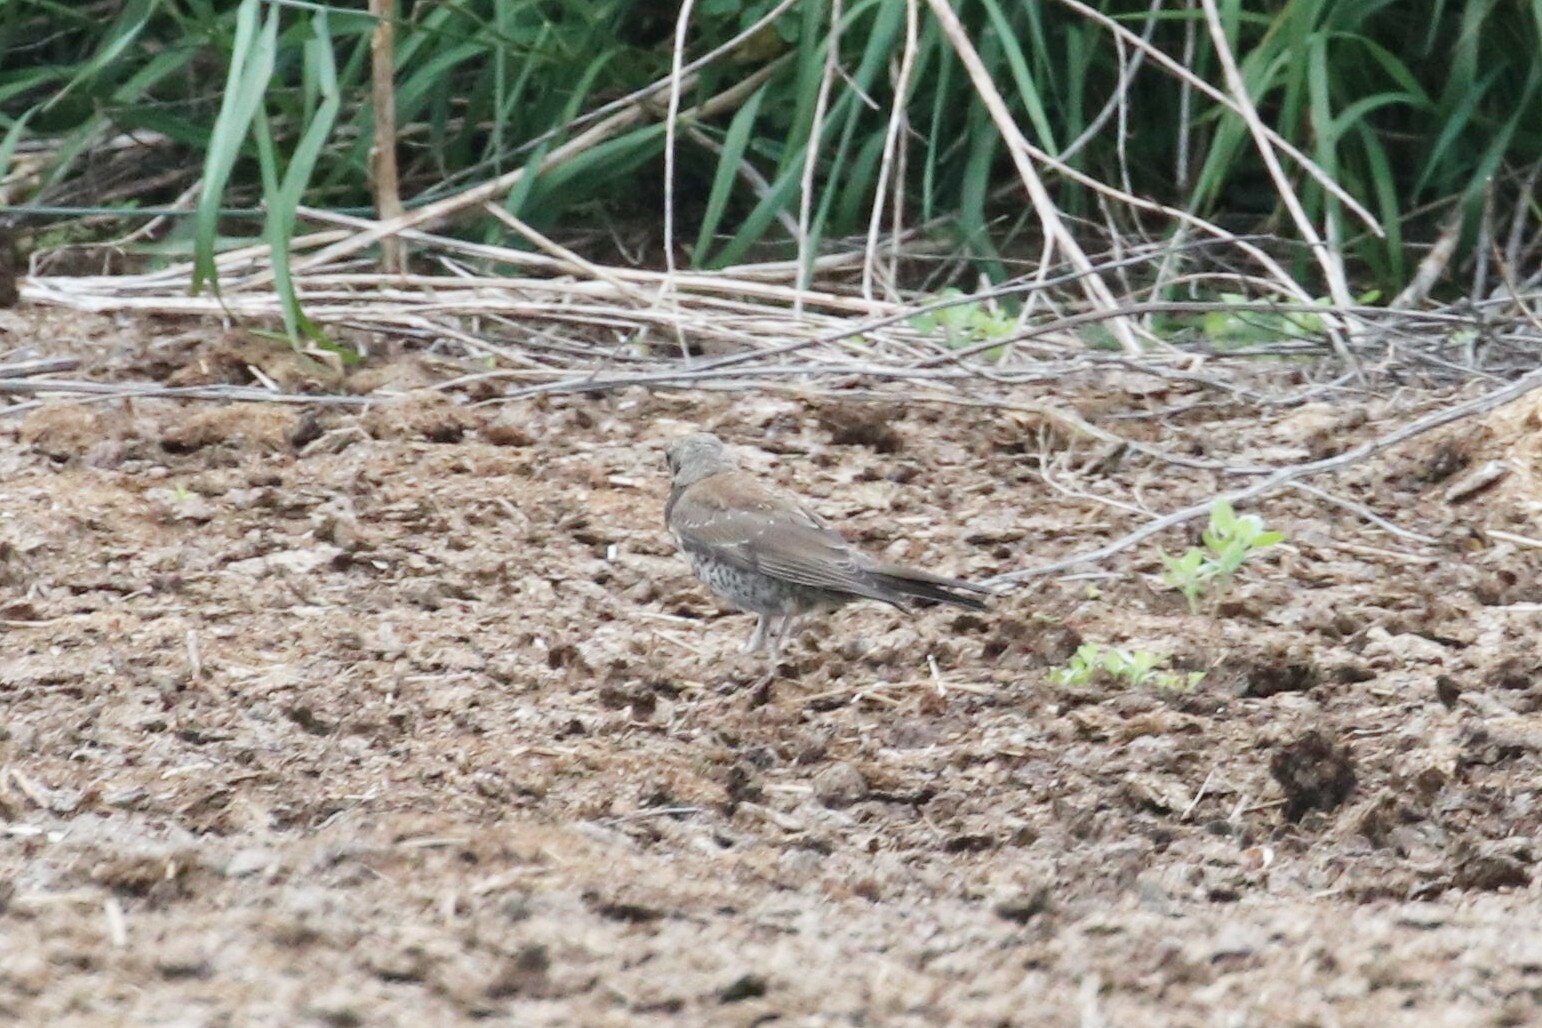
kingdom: Animalia
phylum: Chordata
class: Aves
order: Passeriformes
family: Turdidae
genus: Turdus
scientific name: Turdus pilaris
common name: Fieldfare
